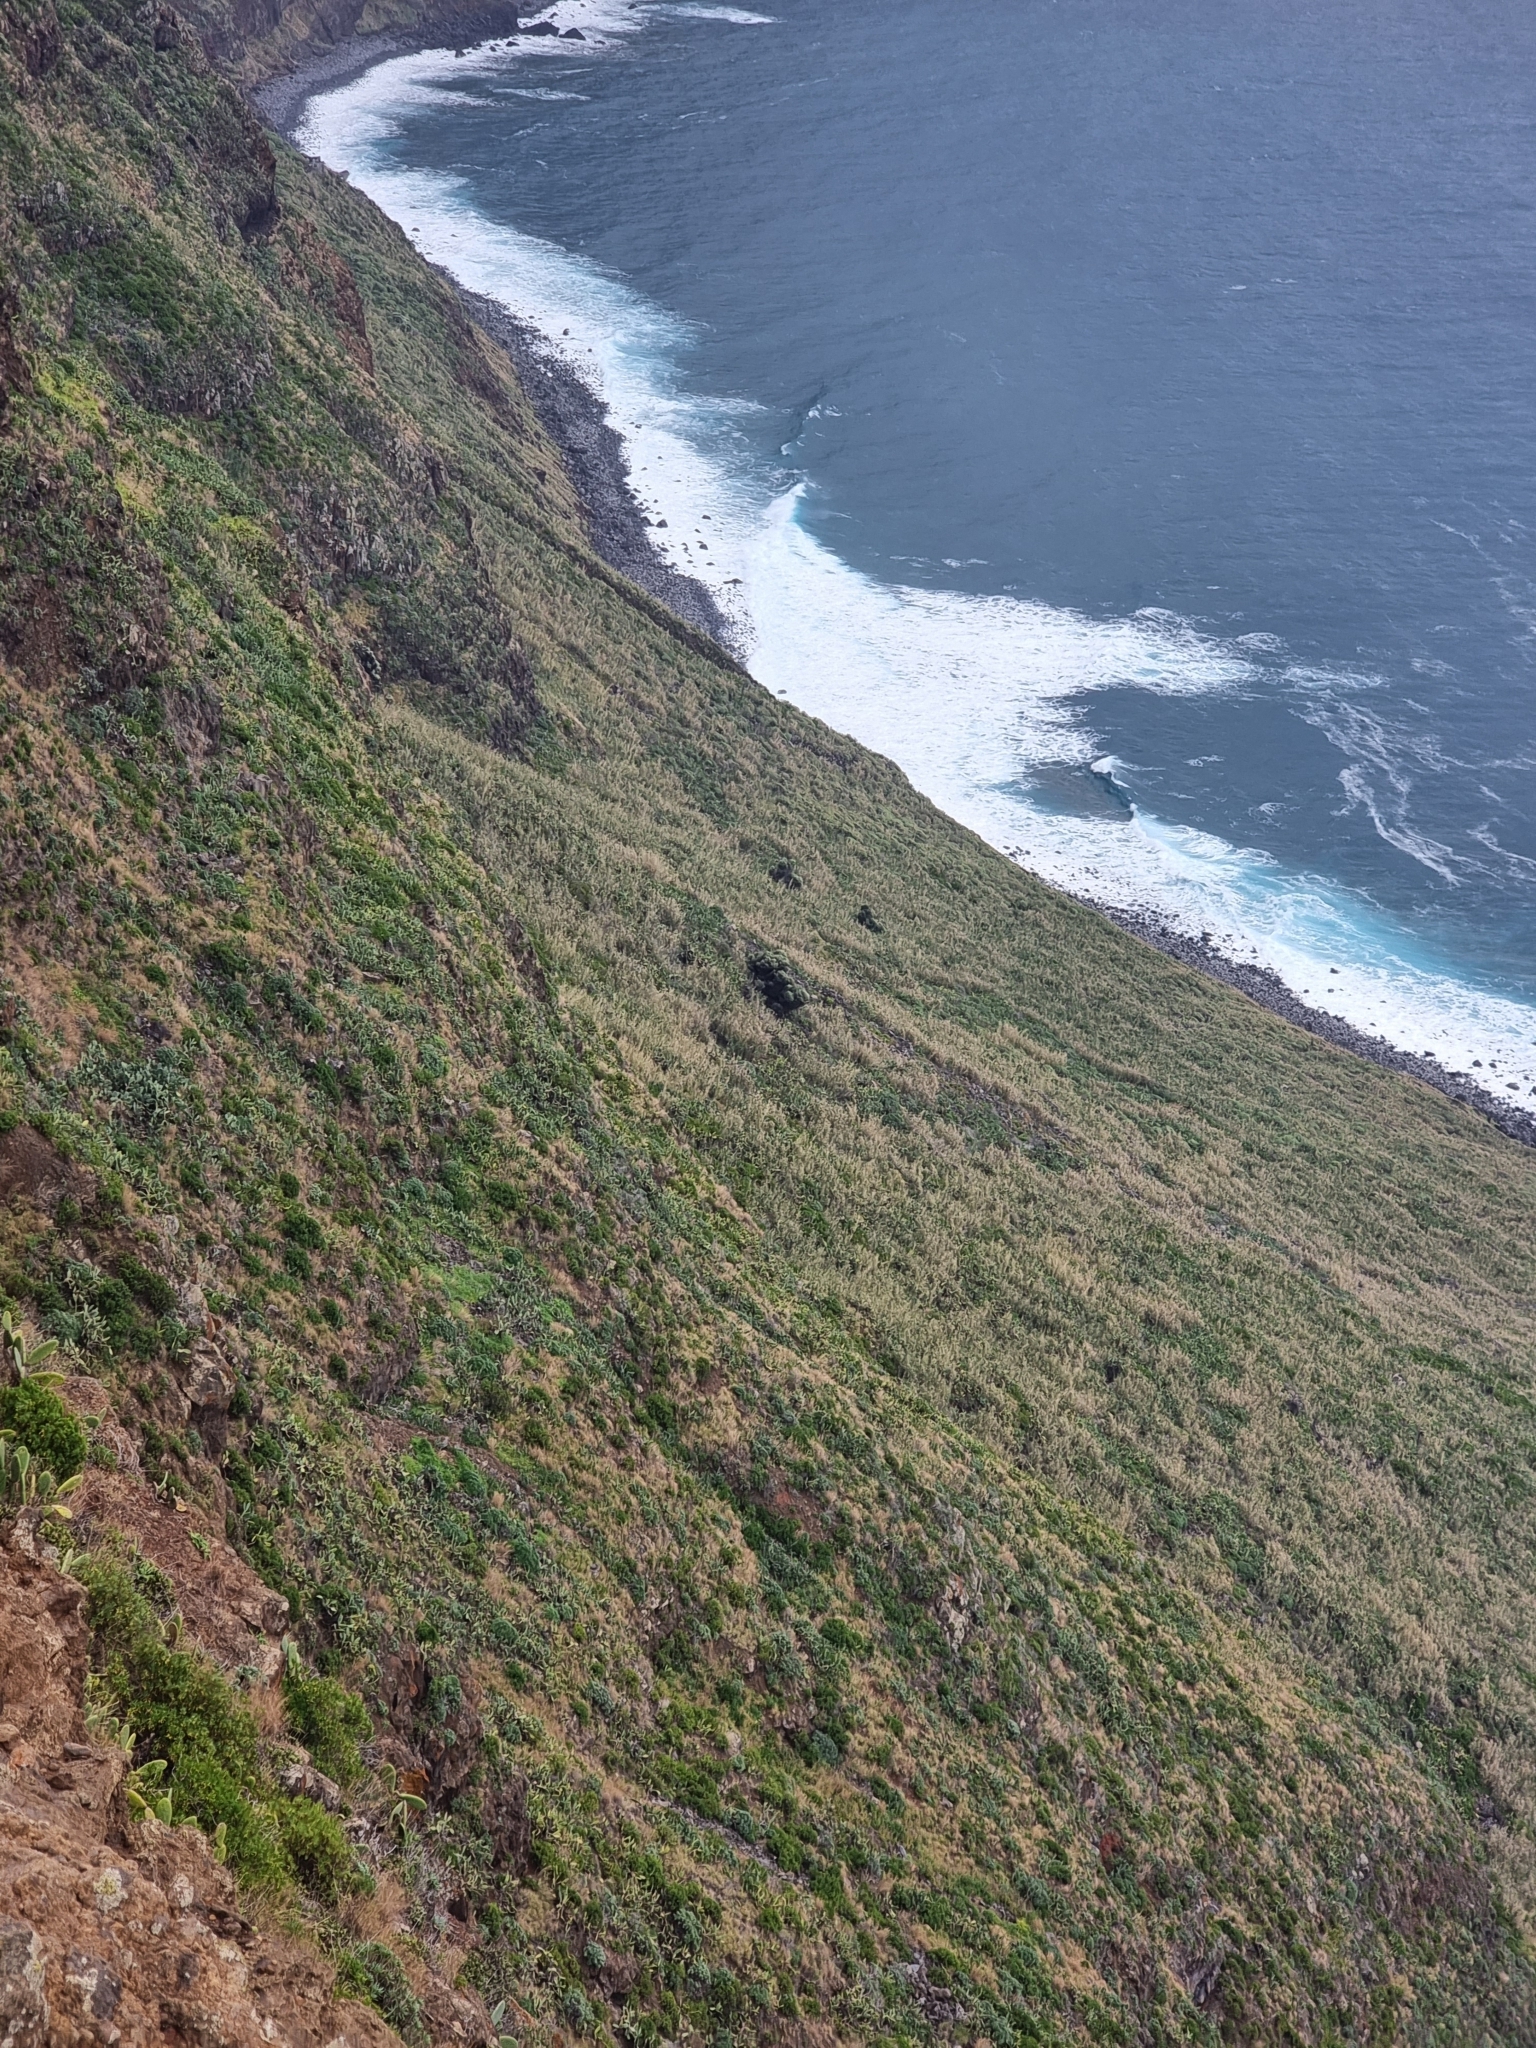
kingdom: Plantae
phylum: Tracheophyta
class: Magnoliopsida
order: Lamiales
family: Oleaceae
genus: Olea
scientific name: Olea europaea
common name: Olive
